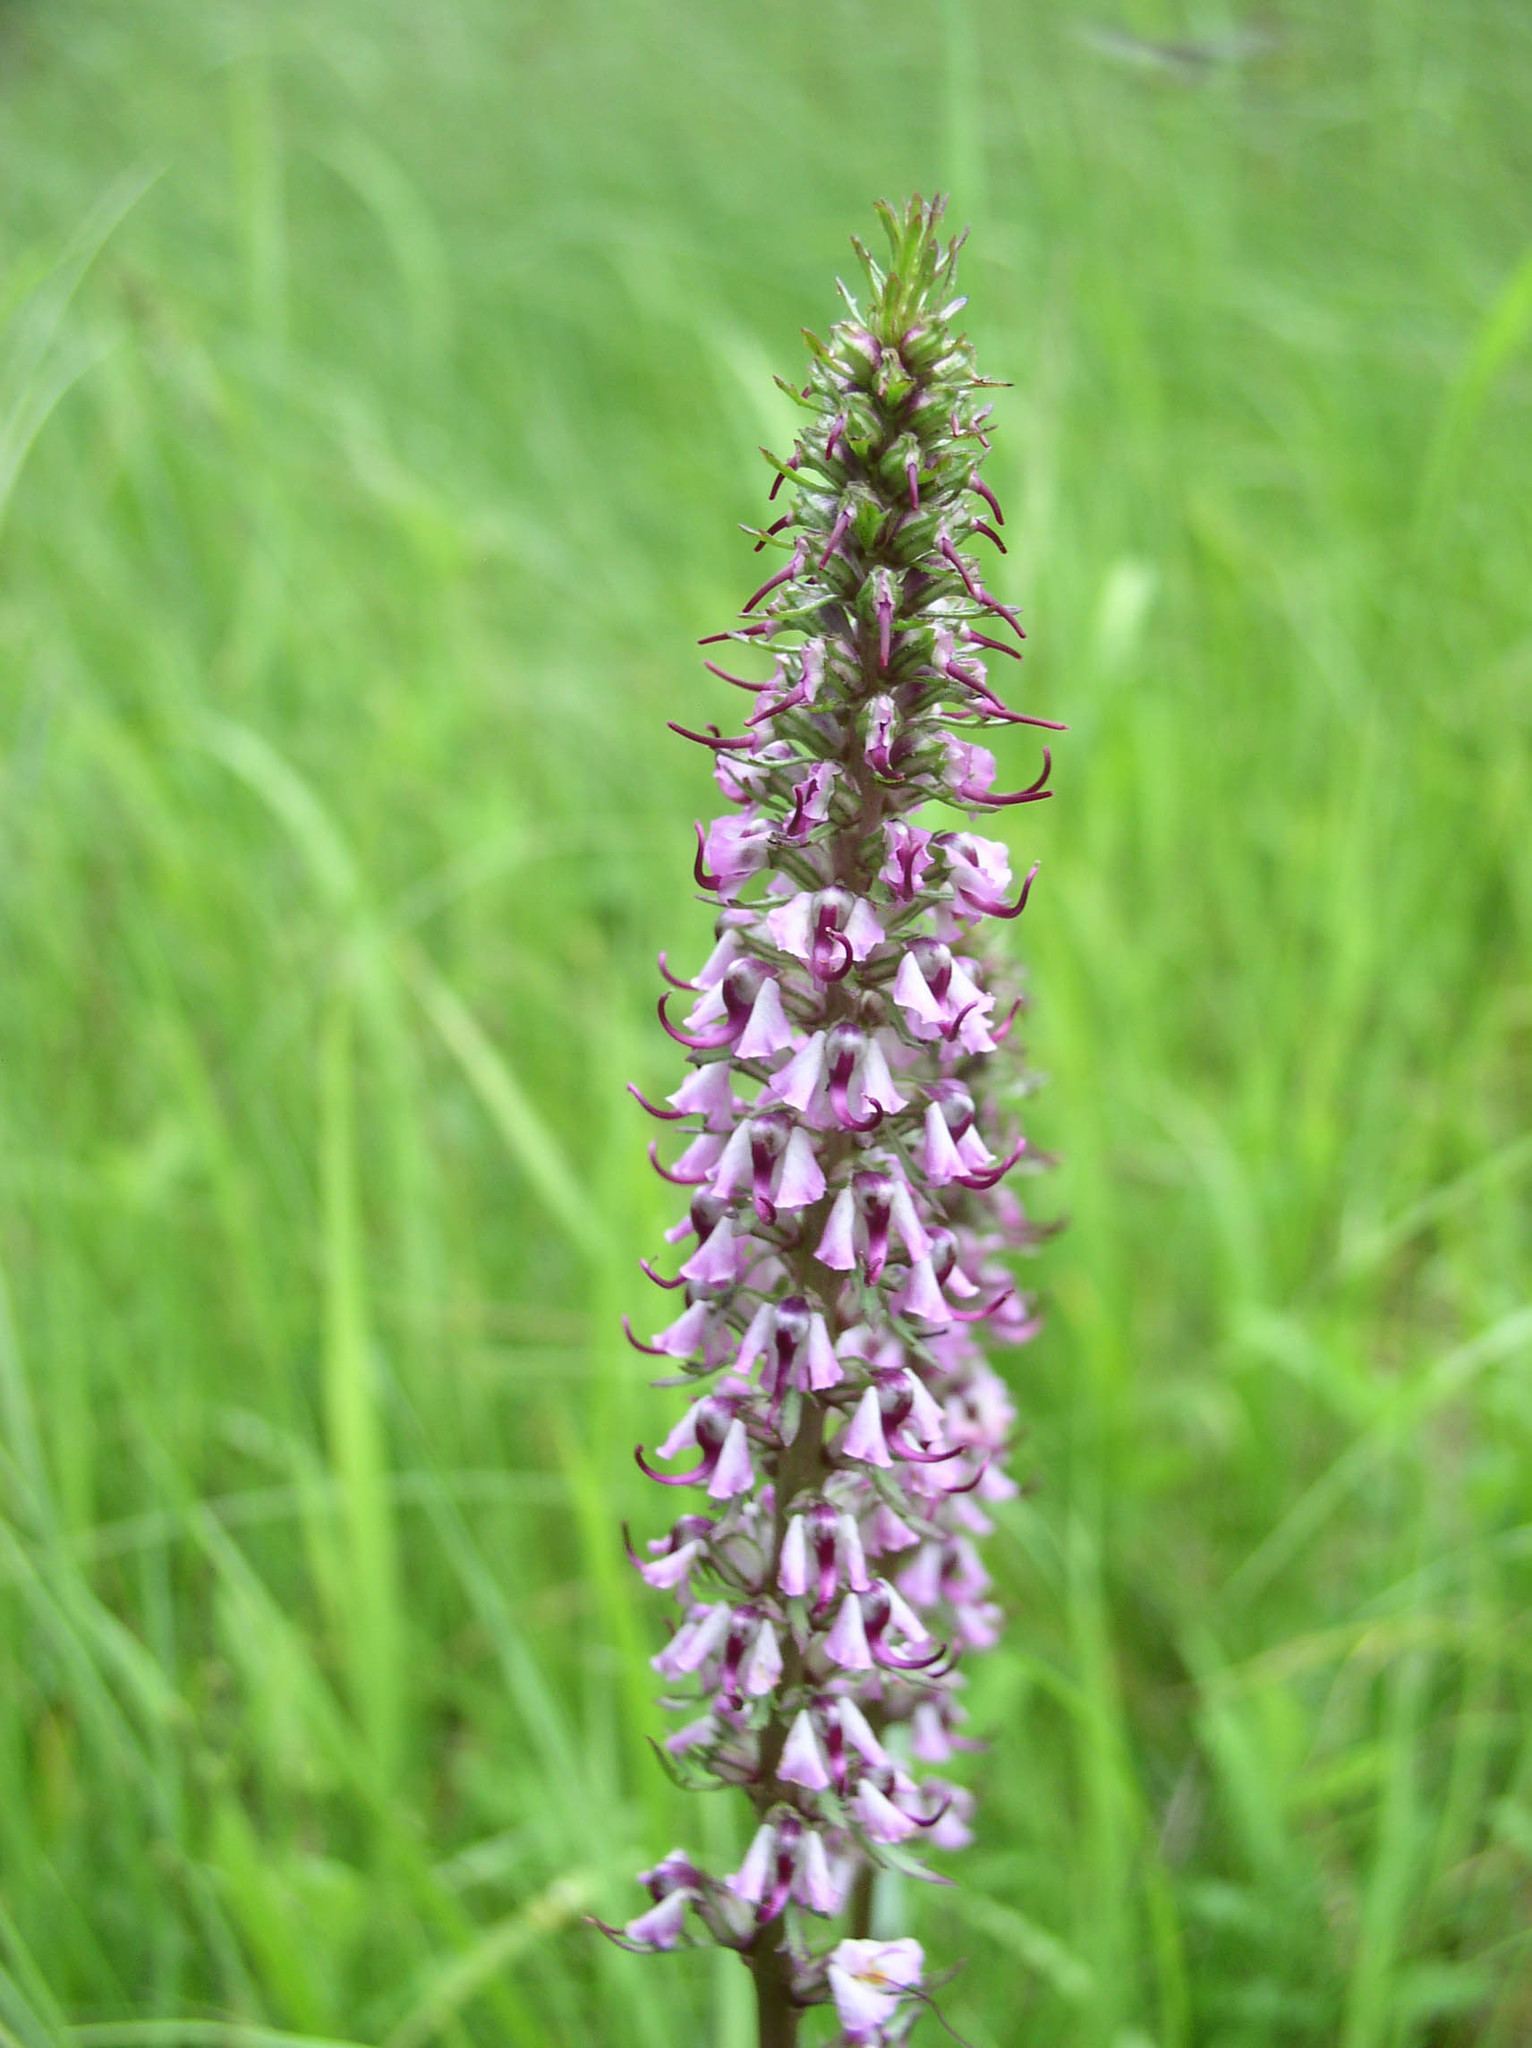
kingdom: Plantae
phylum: Tracheophyta
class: Magnoliopsida
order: Lamiales
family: Orobanchaceae
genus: Pedicularis
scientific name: Pedicularis groenlandica
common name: Elephant's-head
